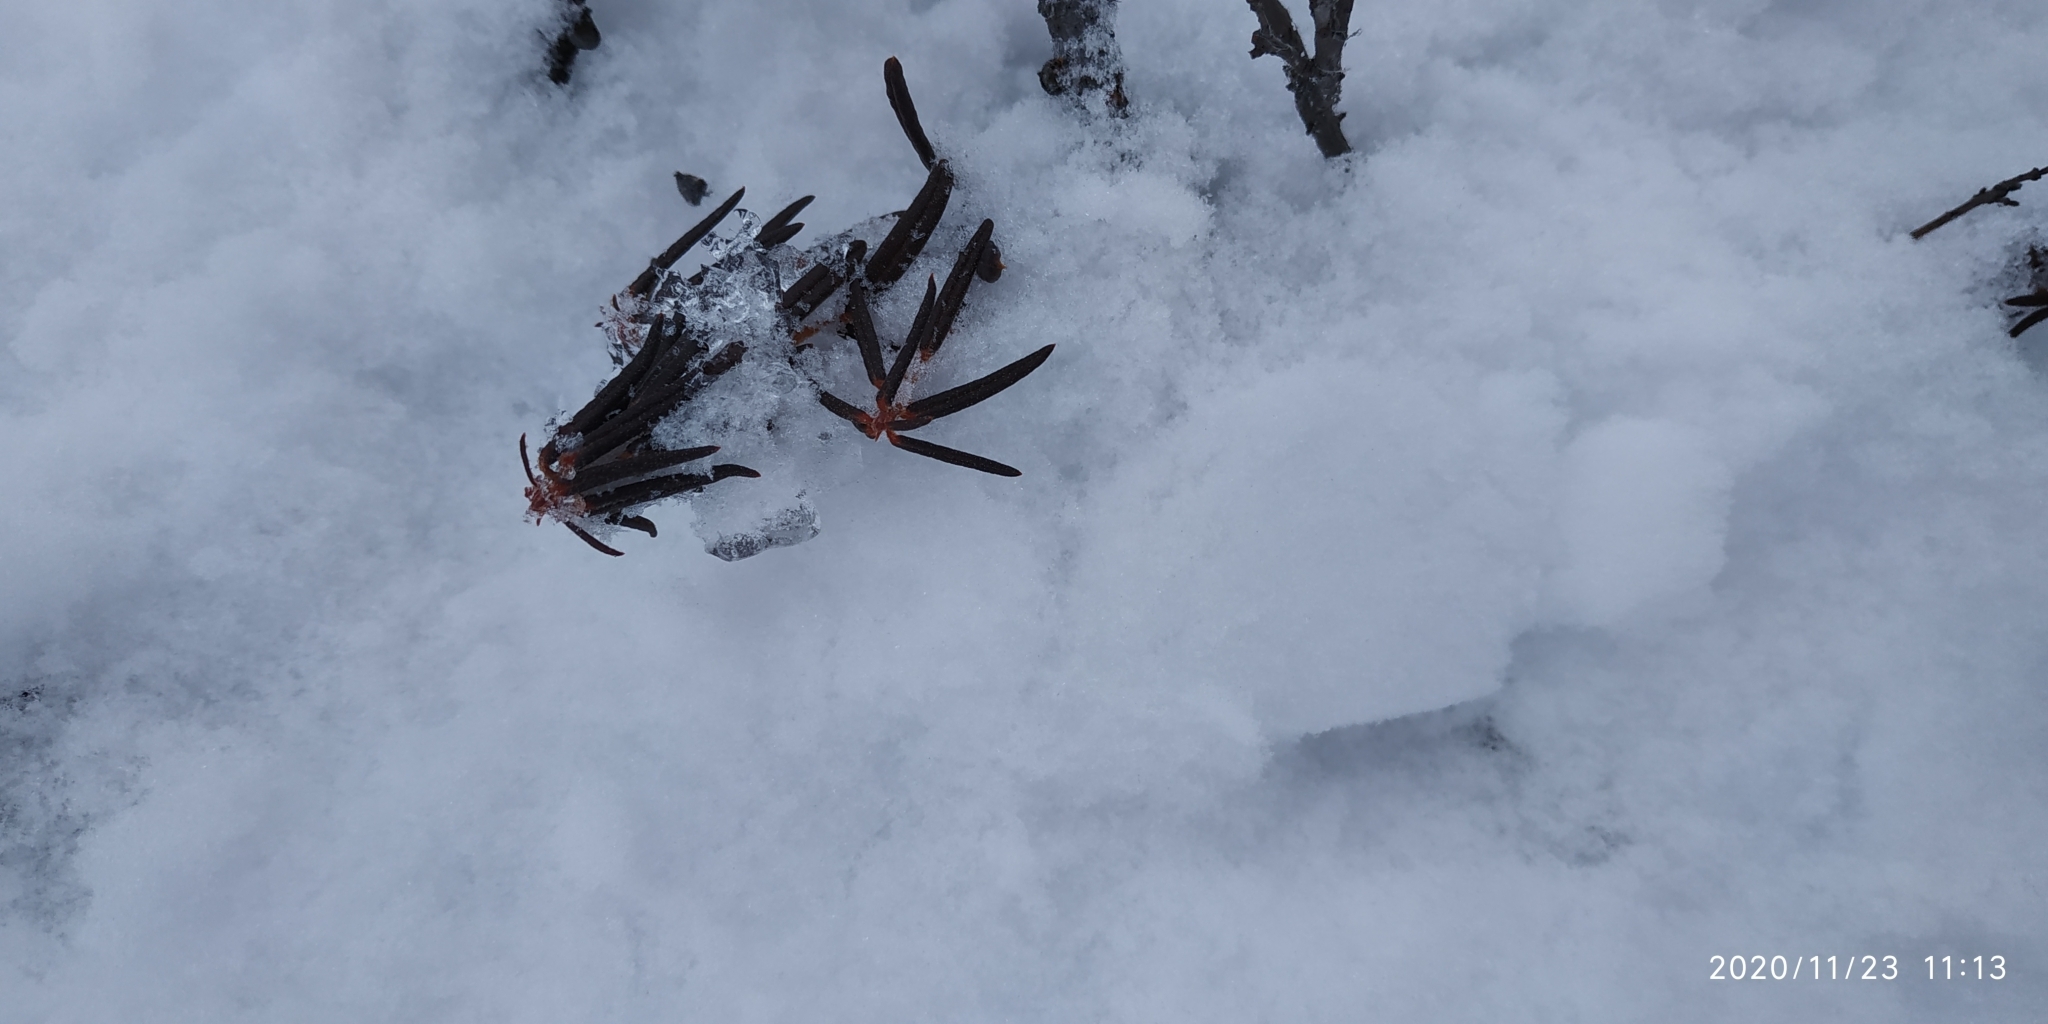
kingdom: Plantae
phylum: Tracheophyta
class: Magnoliopsida
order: Ericales
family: Ericaceae
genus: Rhododendron
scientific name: Rhododendron tomentosum
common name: Marsh labrador tea
